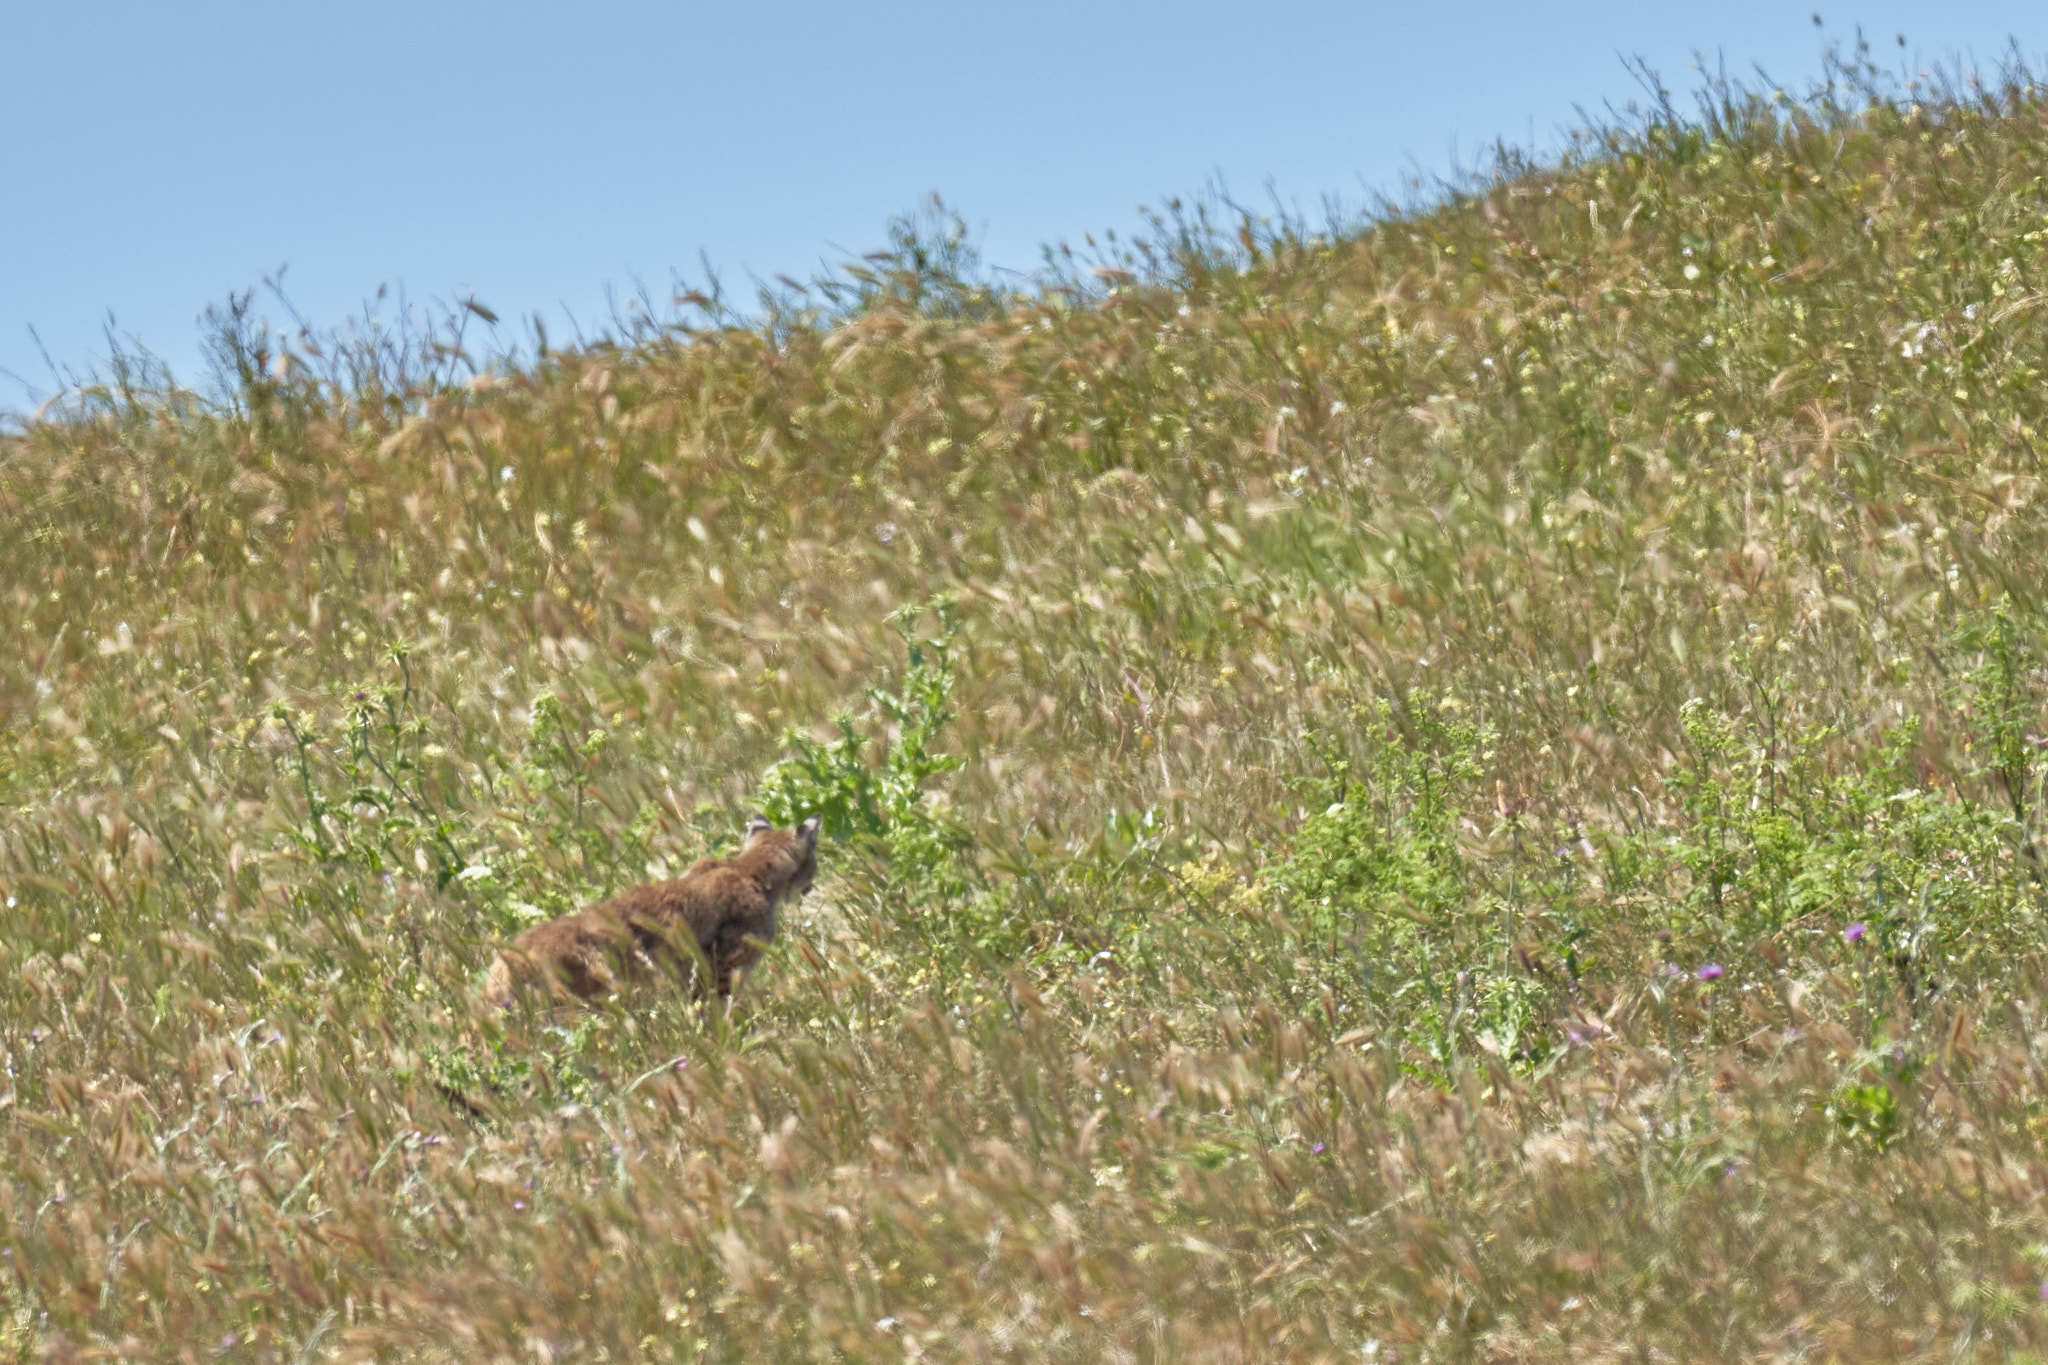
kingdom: Animalia
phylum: Chordata
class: Mammalia
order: Carnivora
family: Felidae
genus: Lynx
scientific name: Lynx rufus
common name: Bobcat
